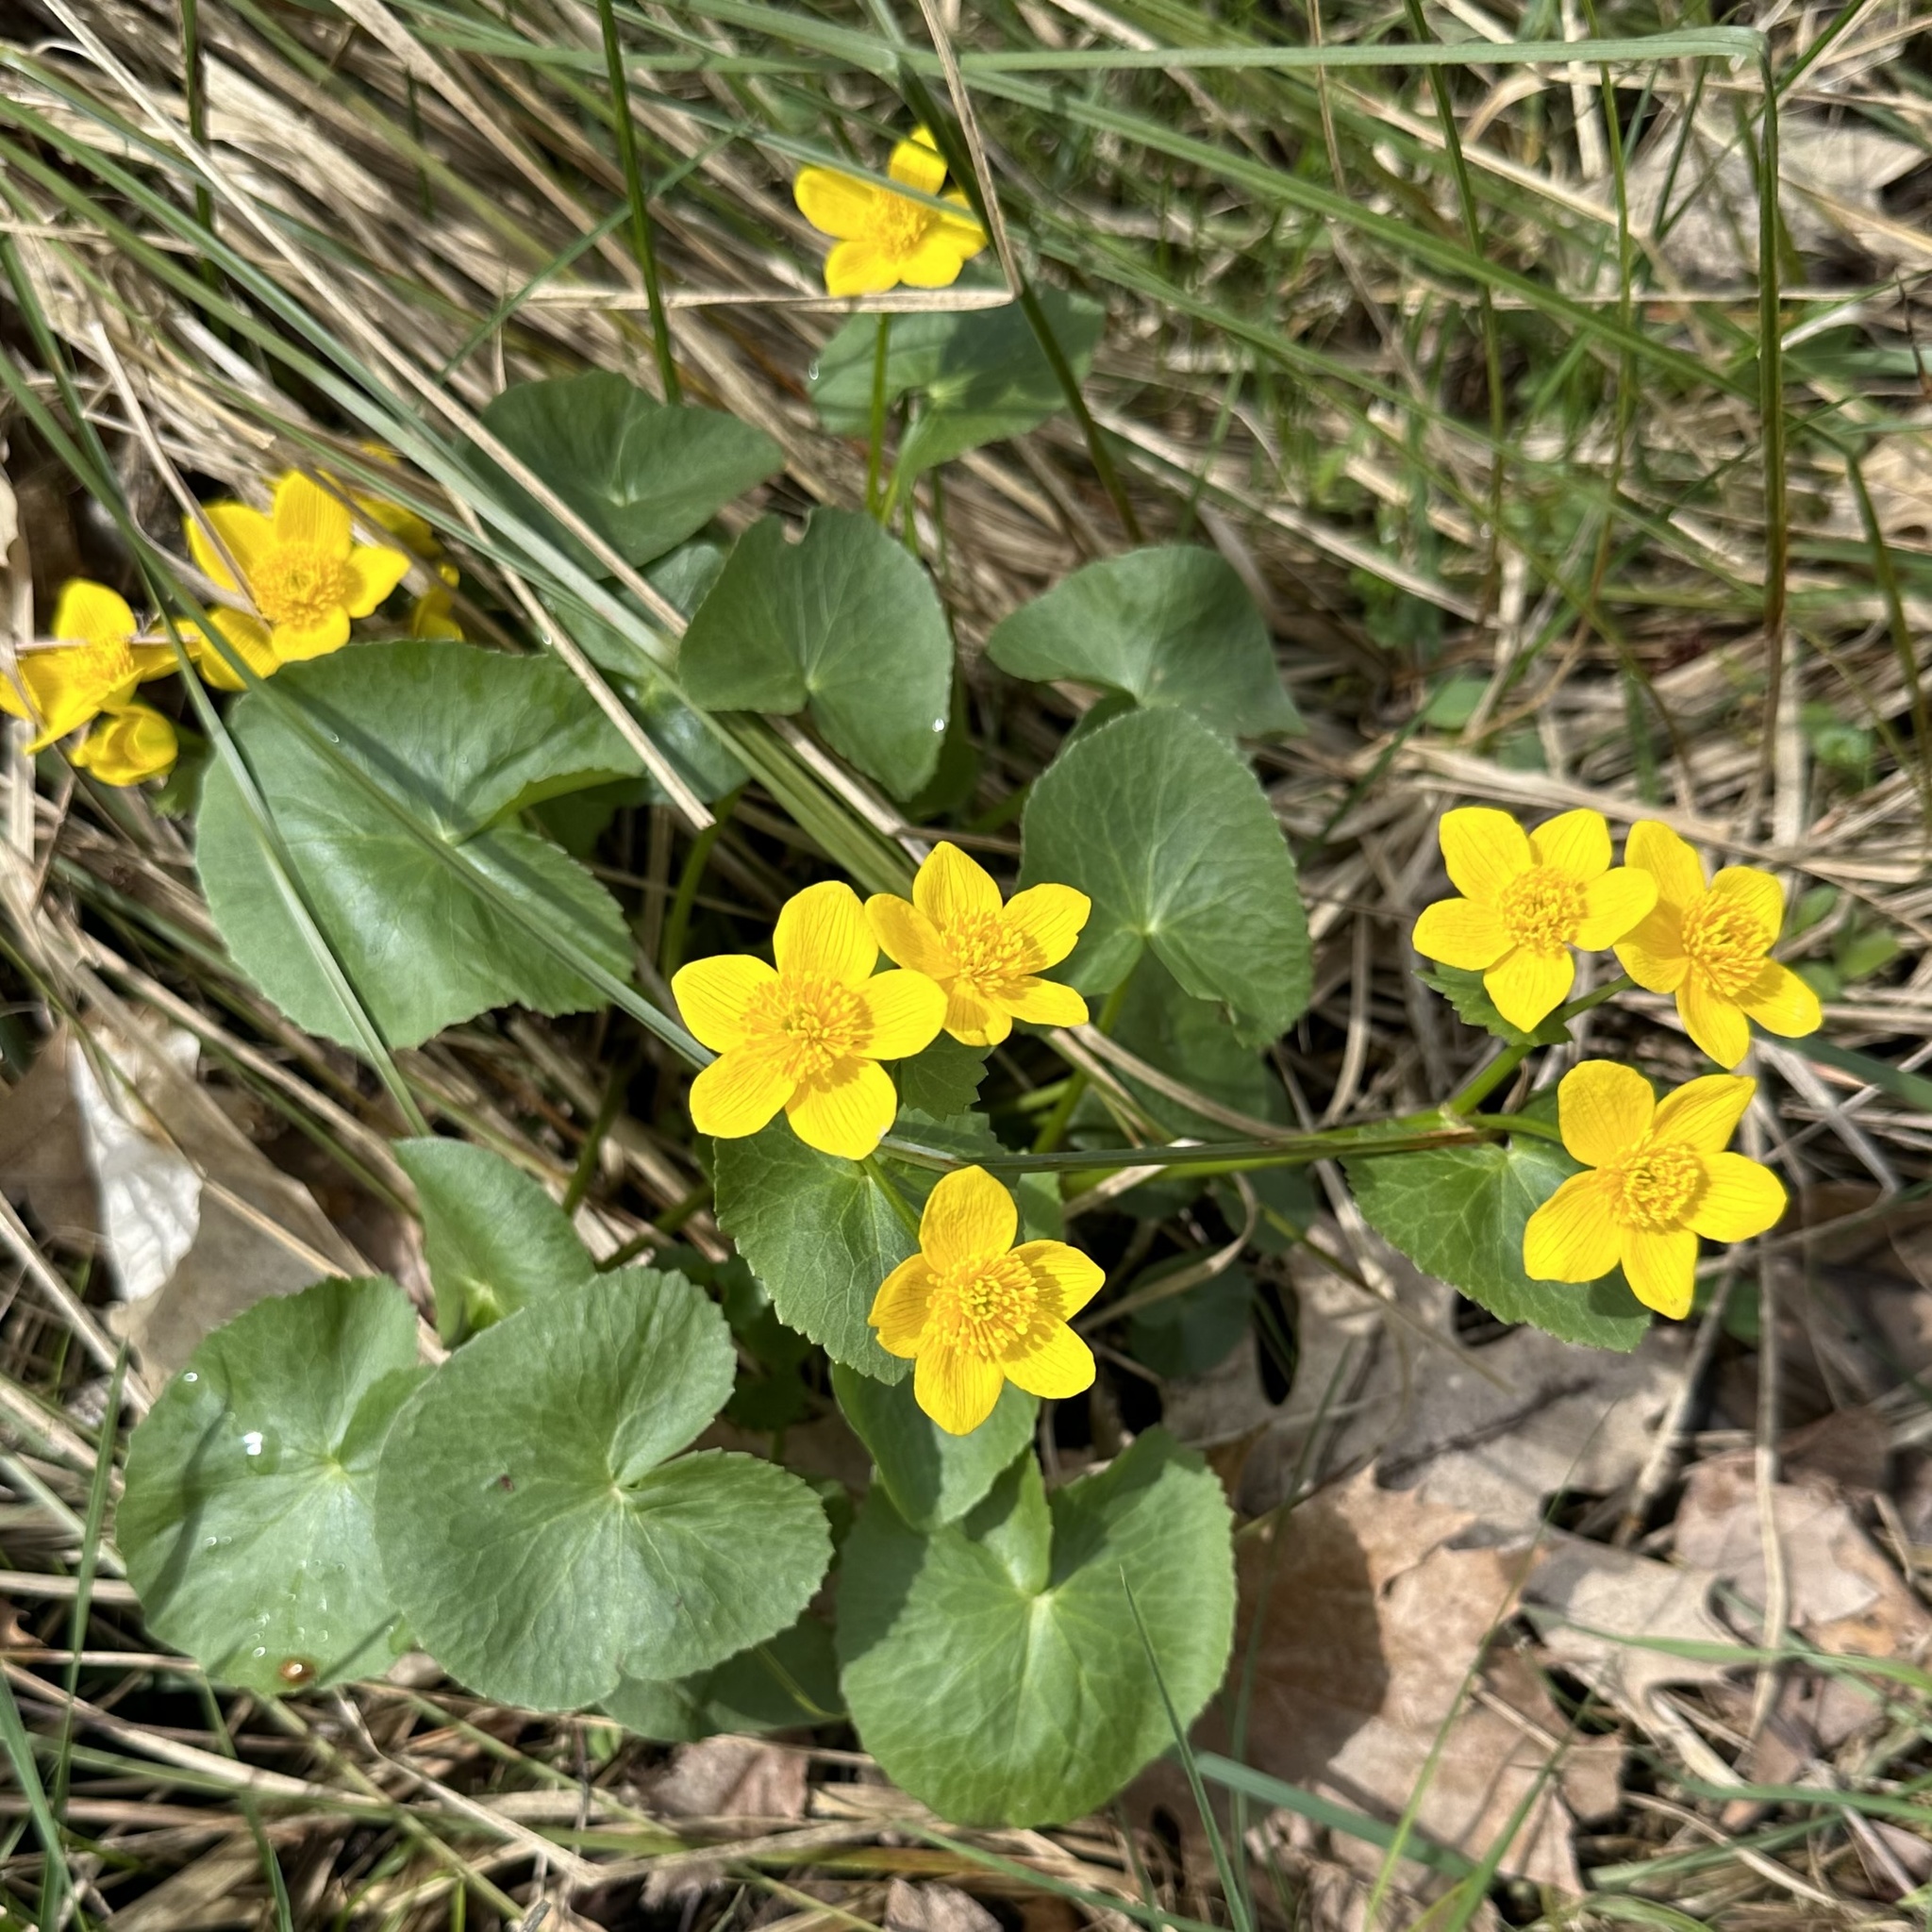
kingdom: Plantae
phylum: Tracheophyta
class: Magnoliopsida
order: Ranunculales
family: Ranunculaceae
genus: Caltha
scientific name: Caltha palustris
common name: Marsh marigold
